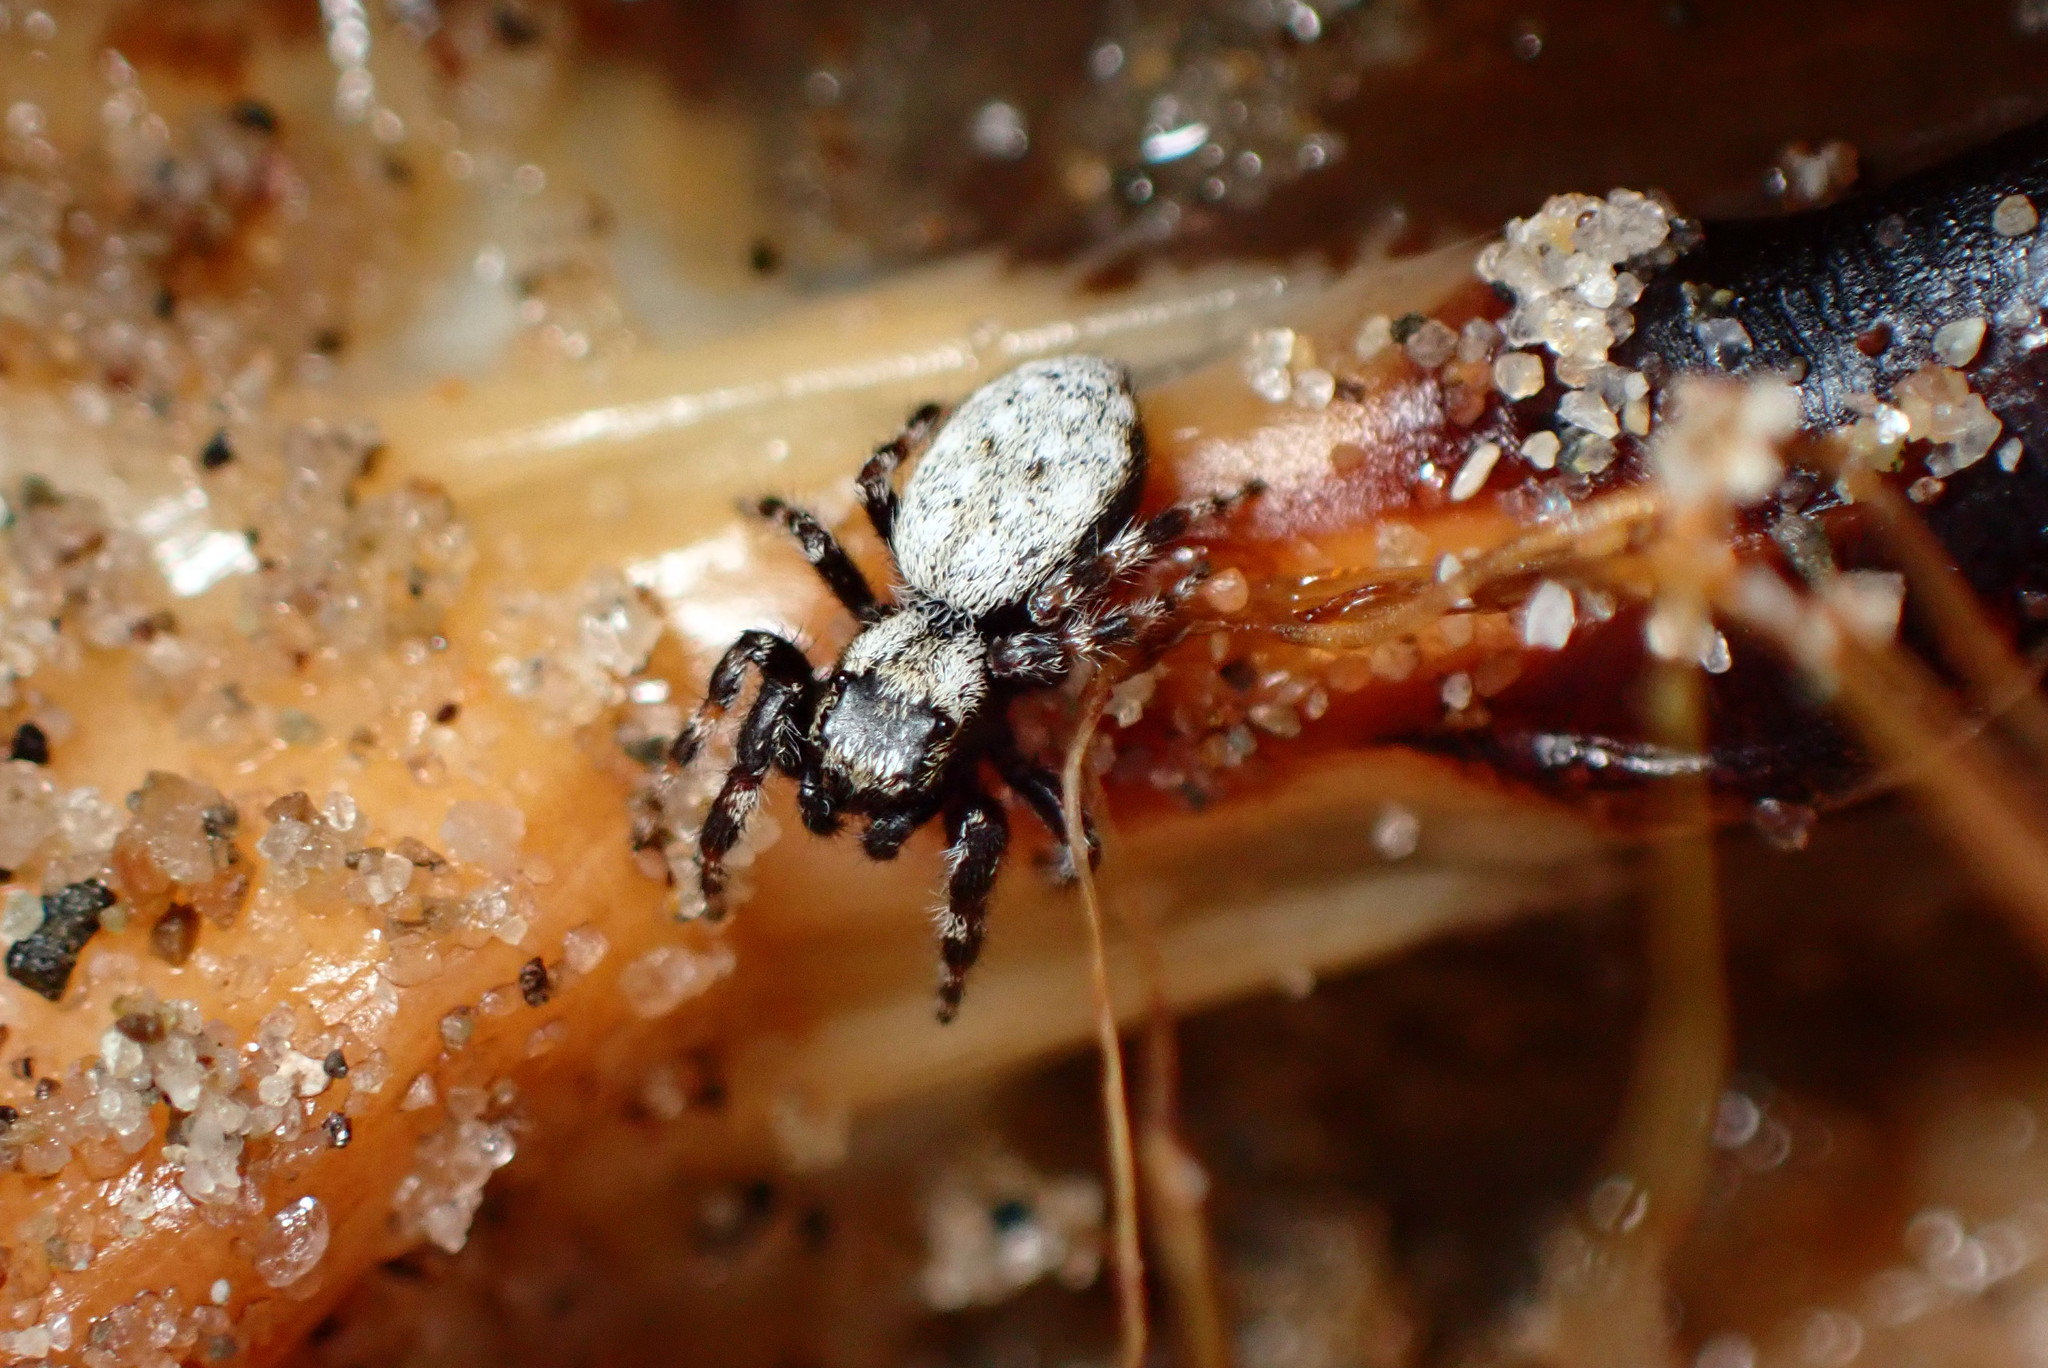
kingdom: Animalia
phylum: Arthropoda
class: Arachnida
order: Araneae
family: Salticidae
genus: Terralonus
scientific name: Terralonus californicus
